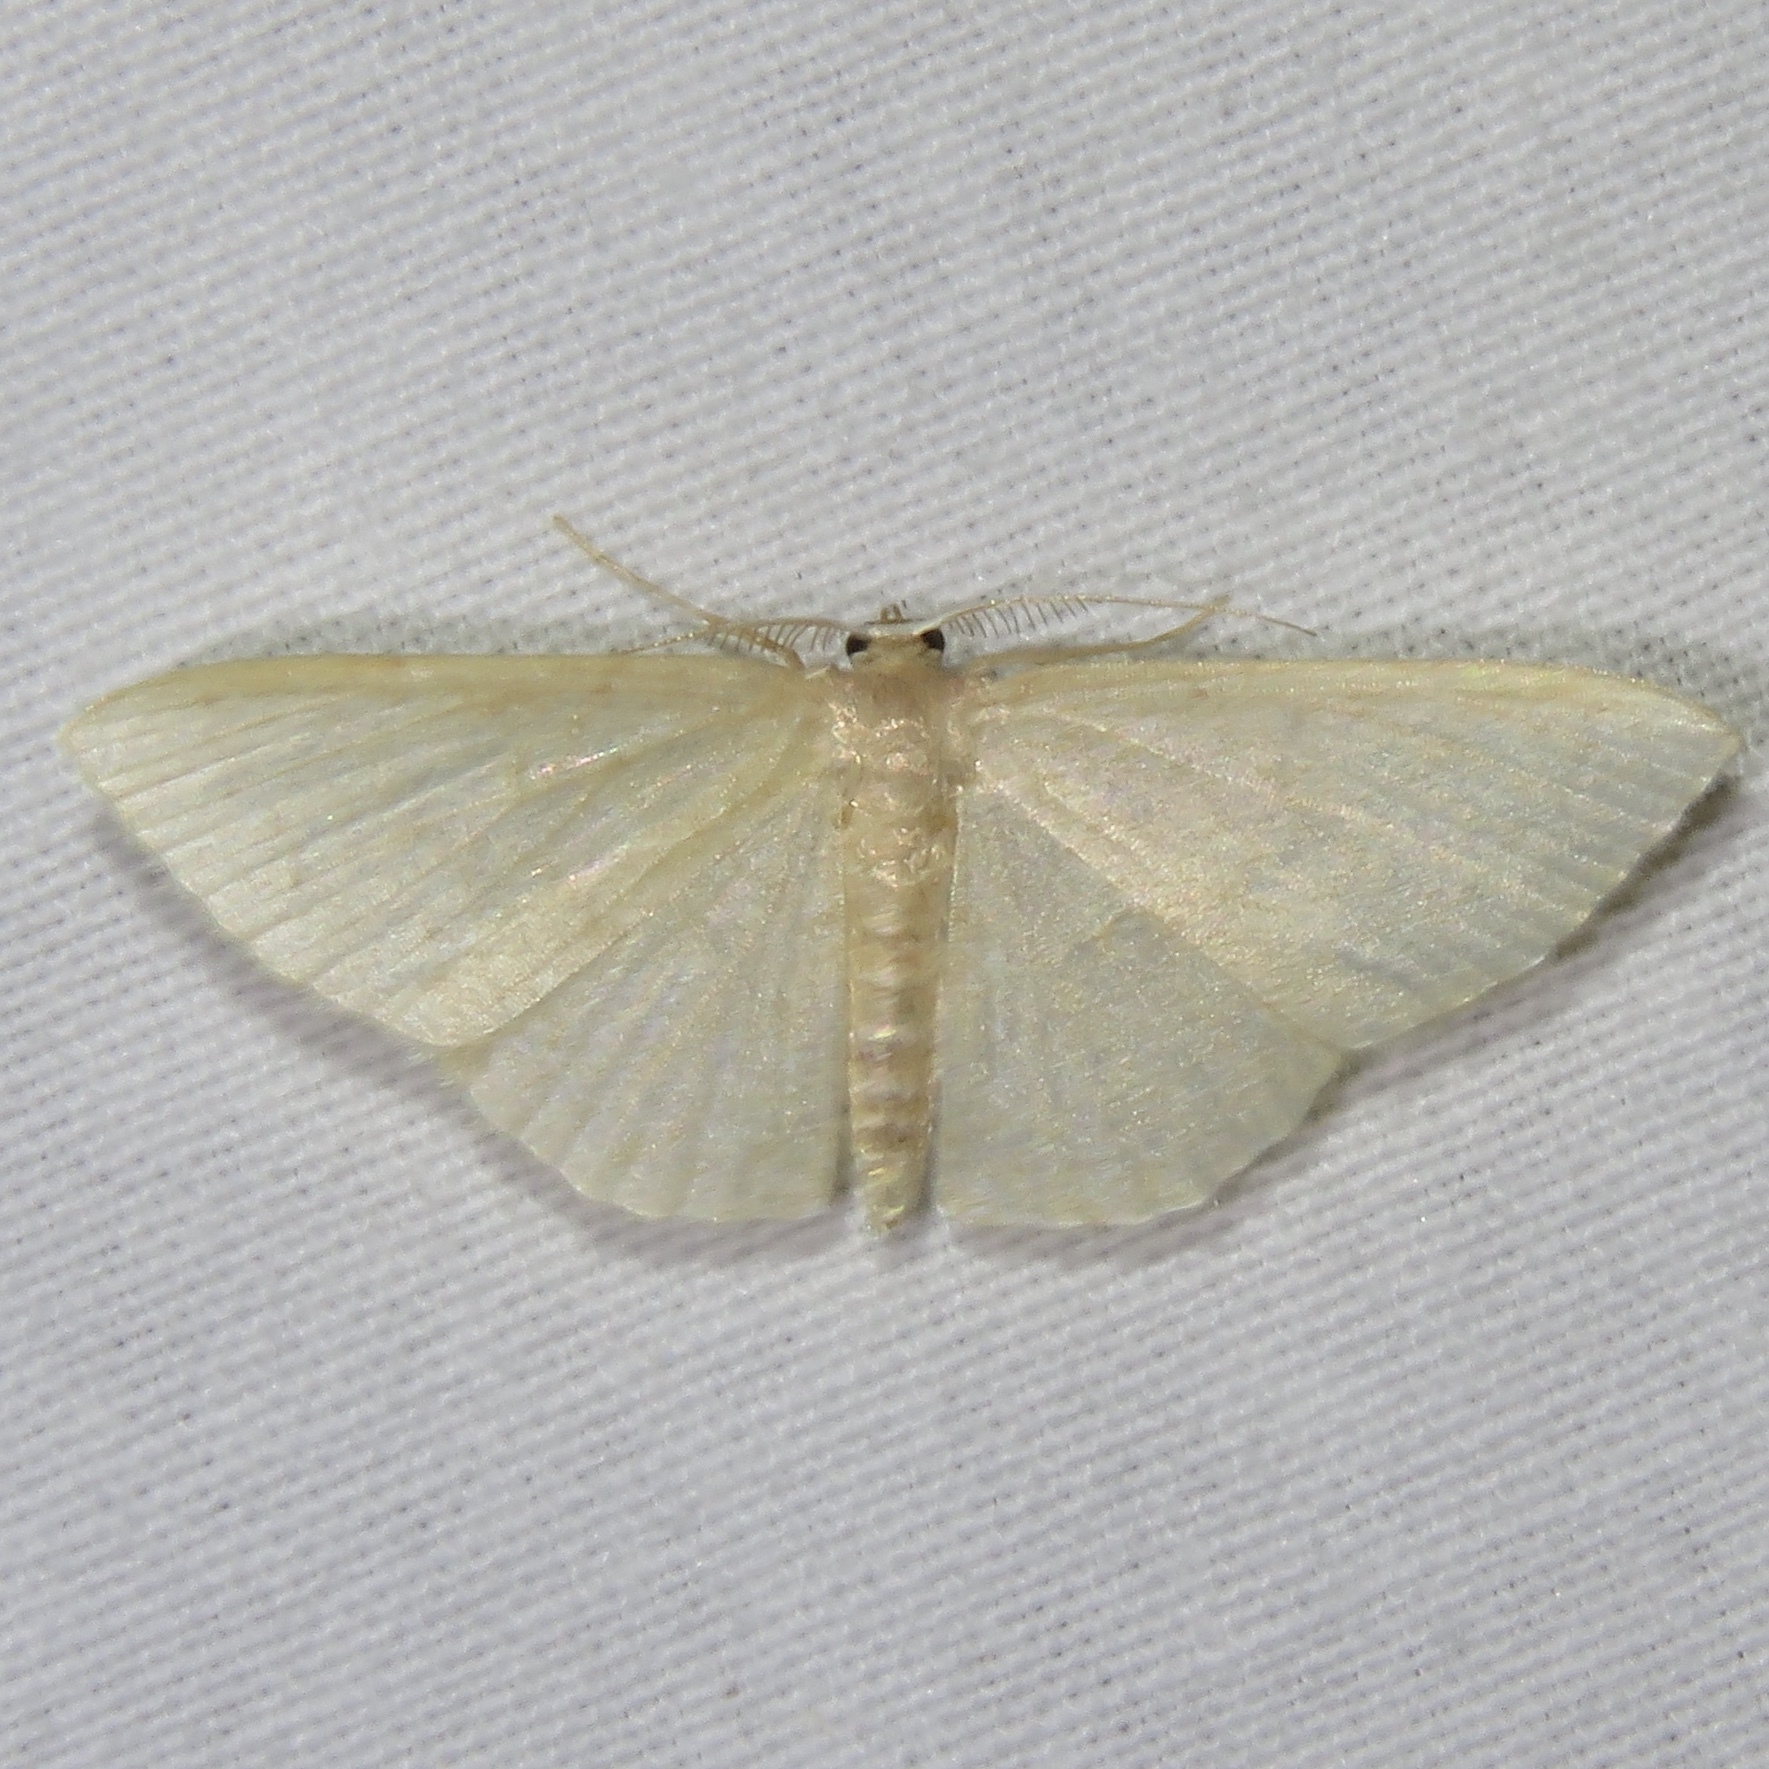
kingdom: Animalia
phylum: Arthropoda
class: Insecta
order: Lepidoptera
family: Geometridae
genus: Pleuroprucha
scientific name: Pleuroprucha insulsaria
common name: Common tan wave
